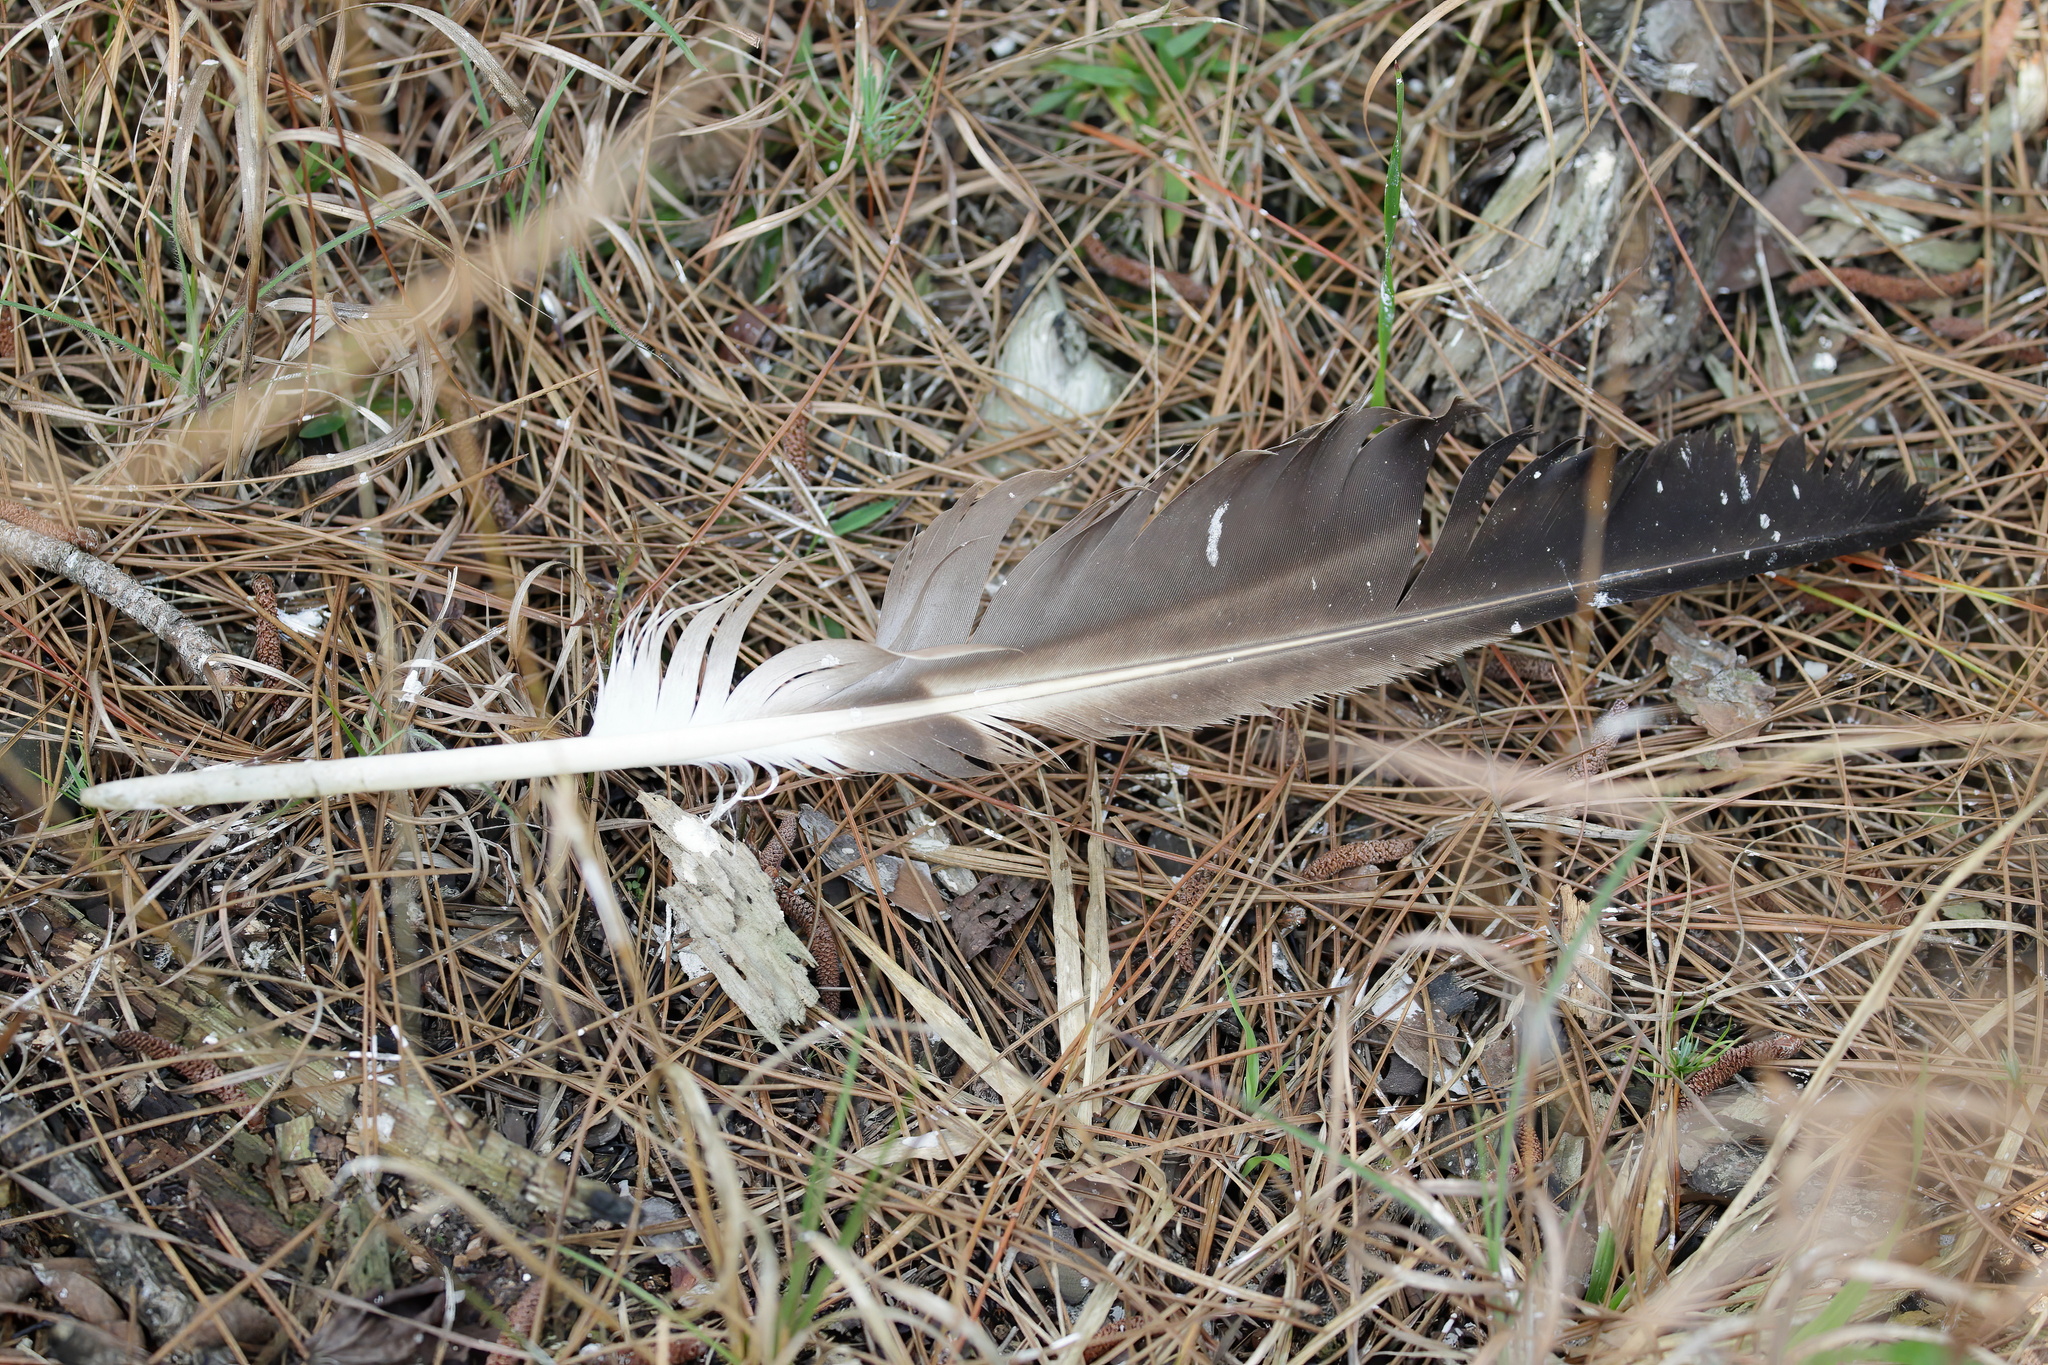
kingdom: Animalia
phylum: Chordata
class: Aves
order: Accipitriformes
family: Accipitridae
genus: Haliaeetus
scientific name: Haliaeetus leucocephalus
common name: Bald eagle
